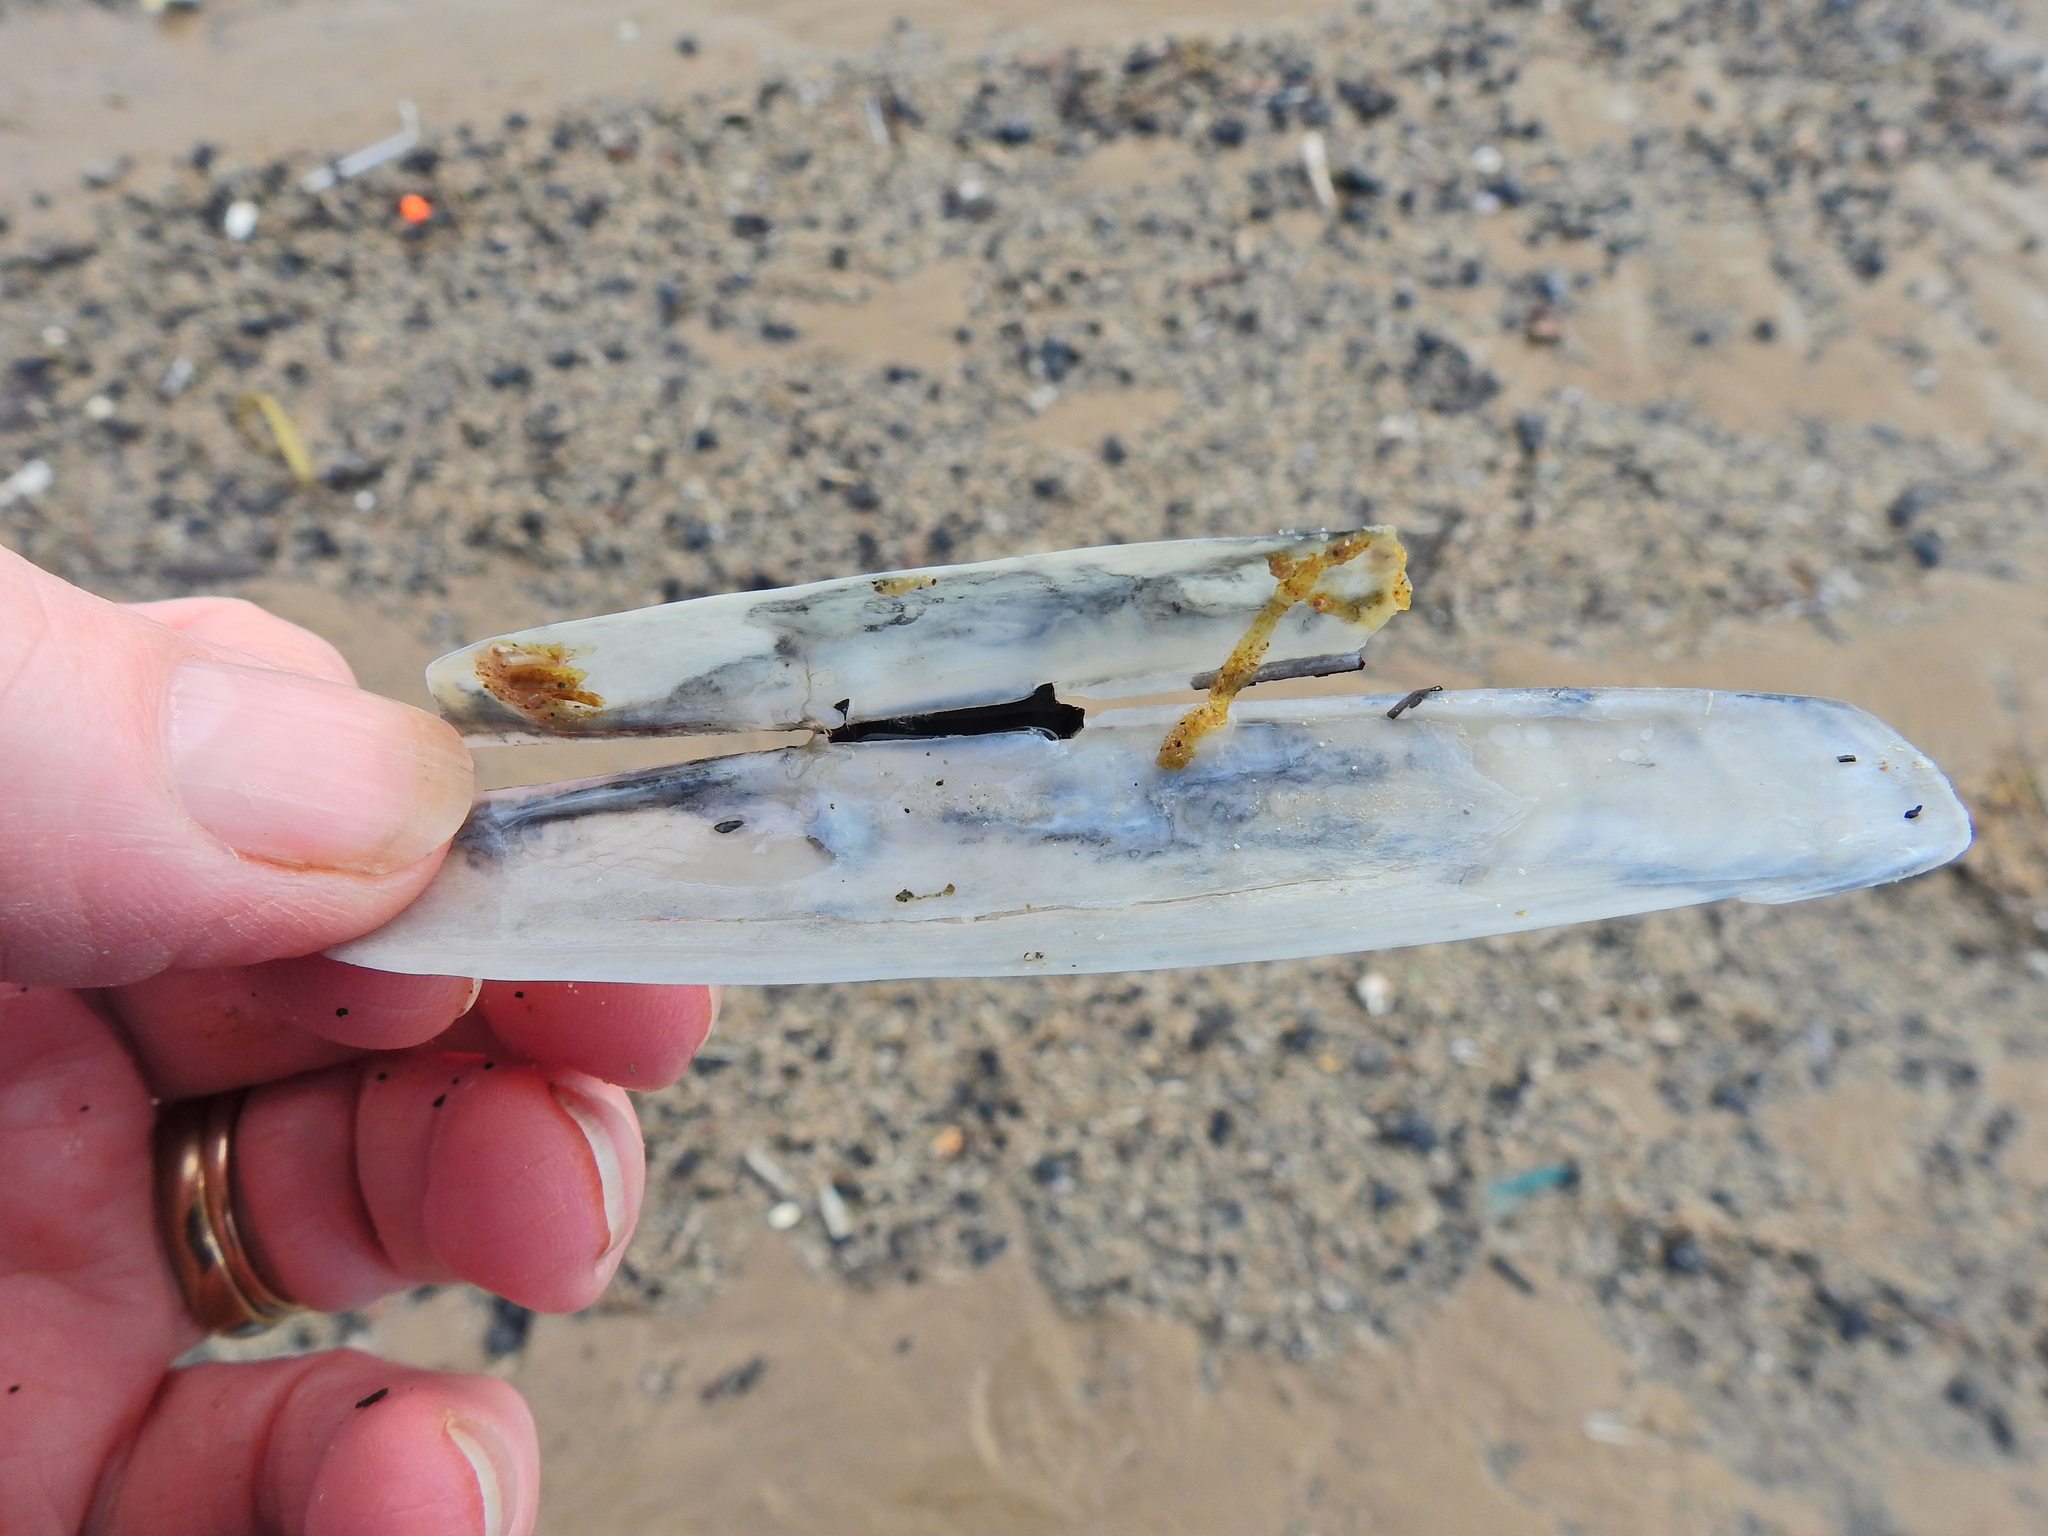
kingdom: Animalia
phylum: Mollusca
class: Bivalvia
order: Adapedonta
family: Pharidae
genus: Pharus
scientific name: Pharus legumen
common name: Bean razor clam
